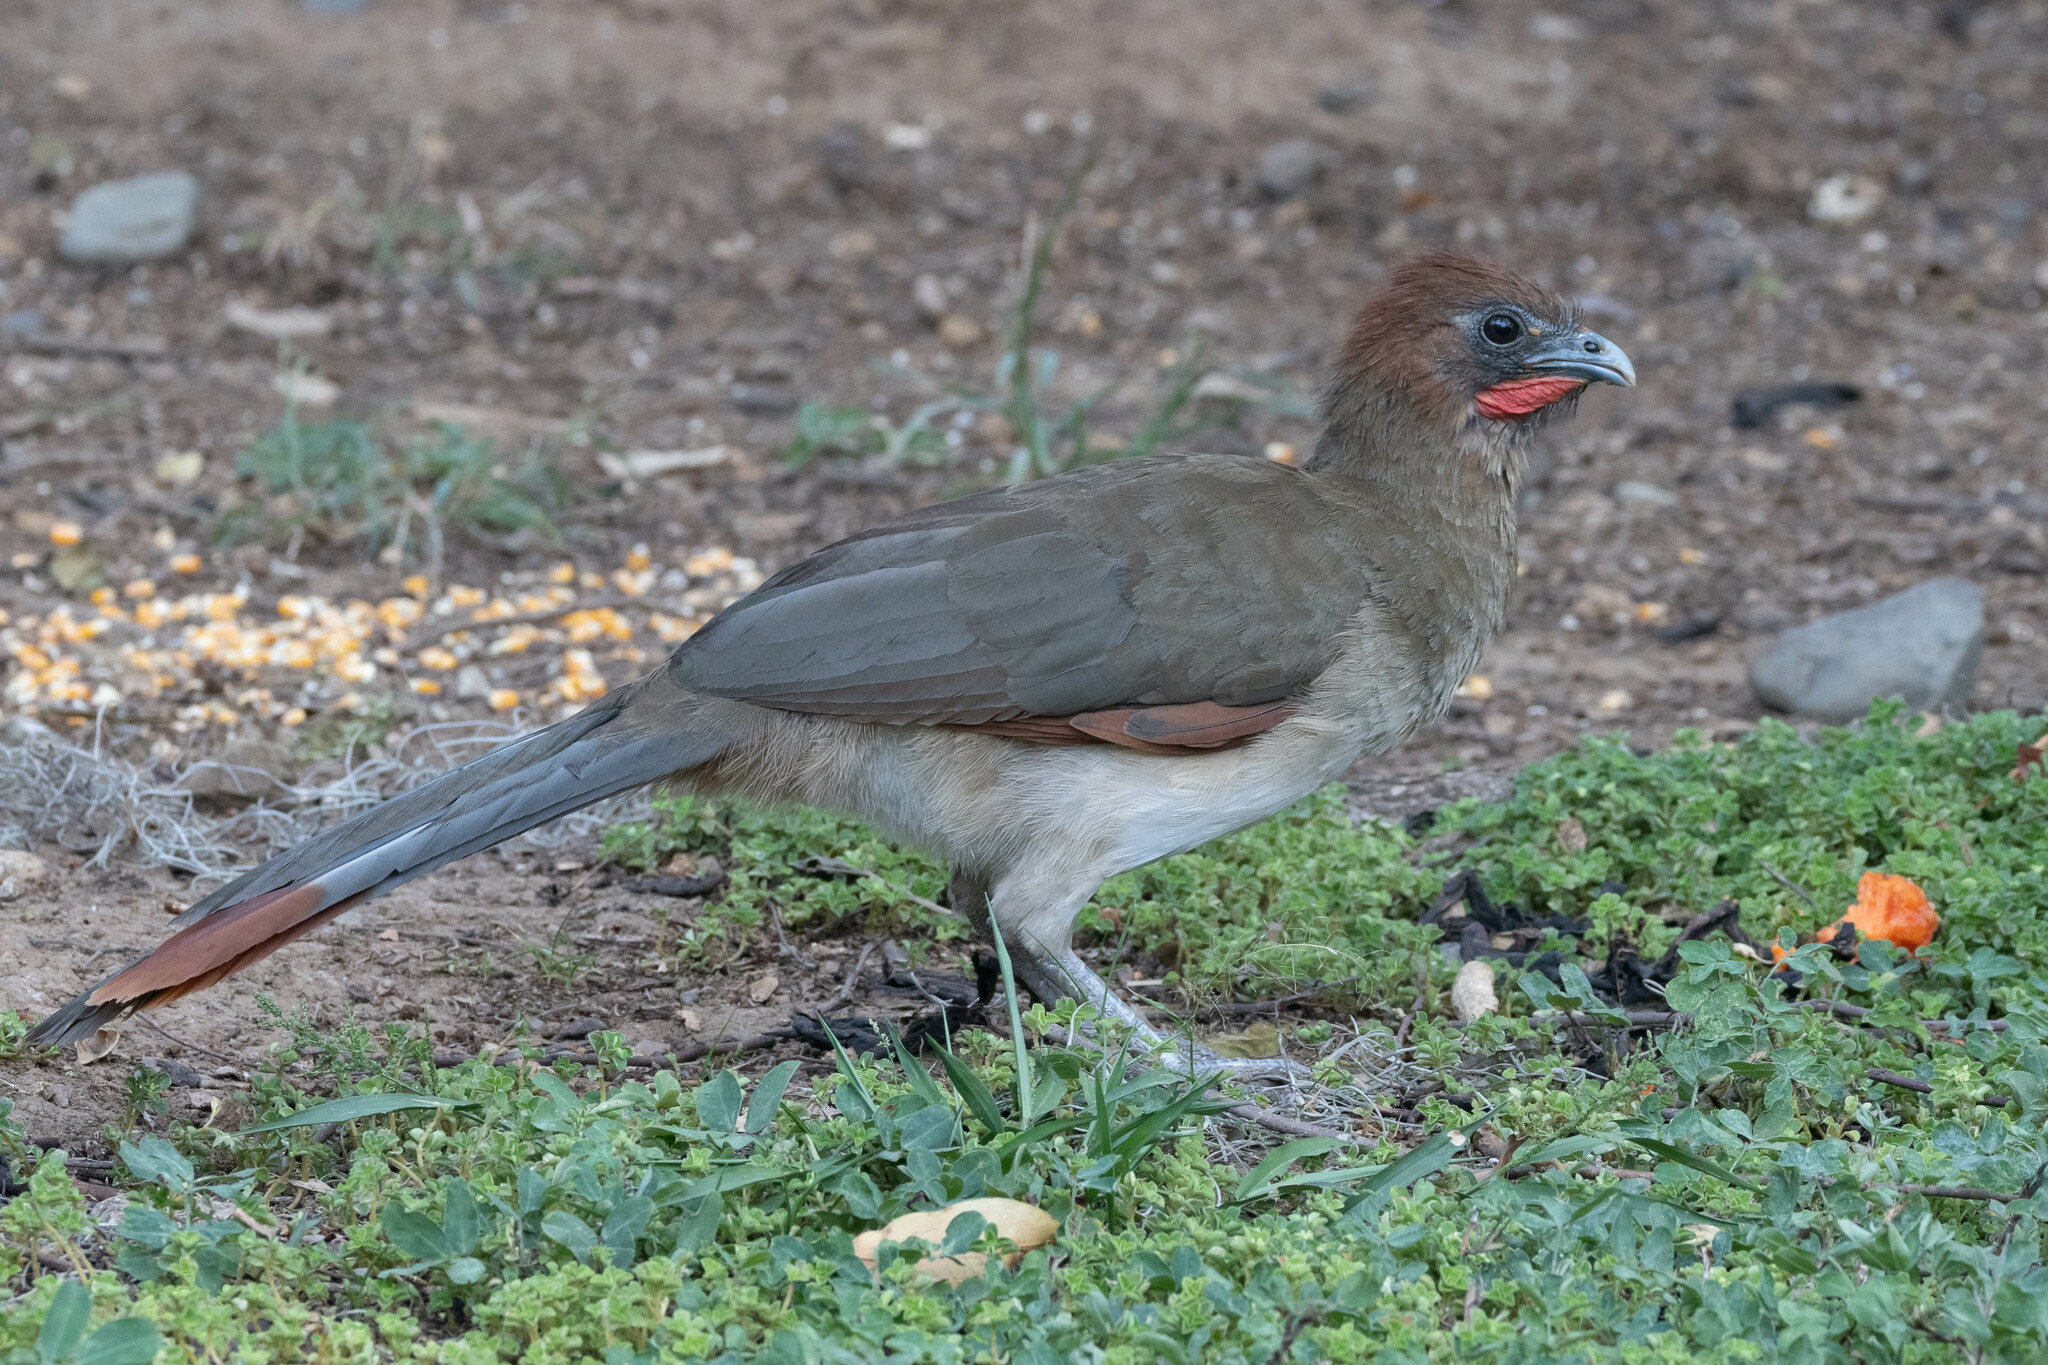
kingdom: Animalia
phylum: Chordata
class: Aves
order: Galliformes
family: Cracidae
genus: Ortalis
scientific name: Ortalis erythroptera
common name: Rufous-headed chachalaca
